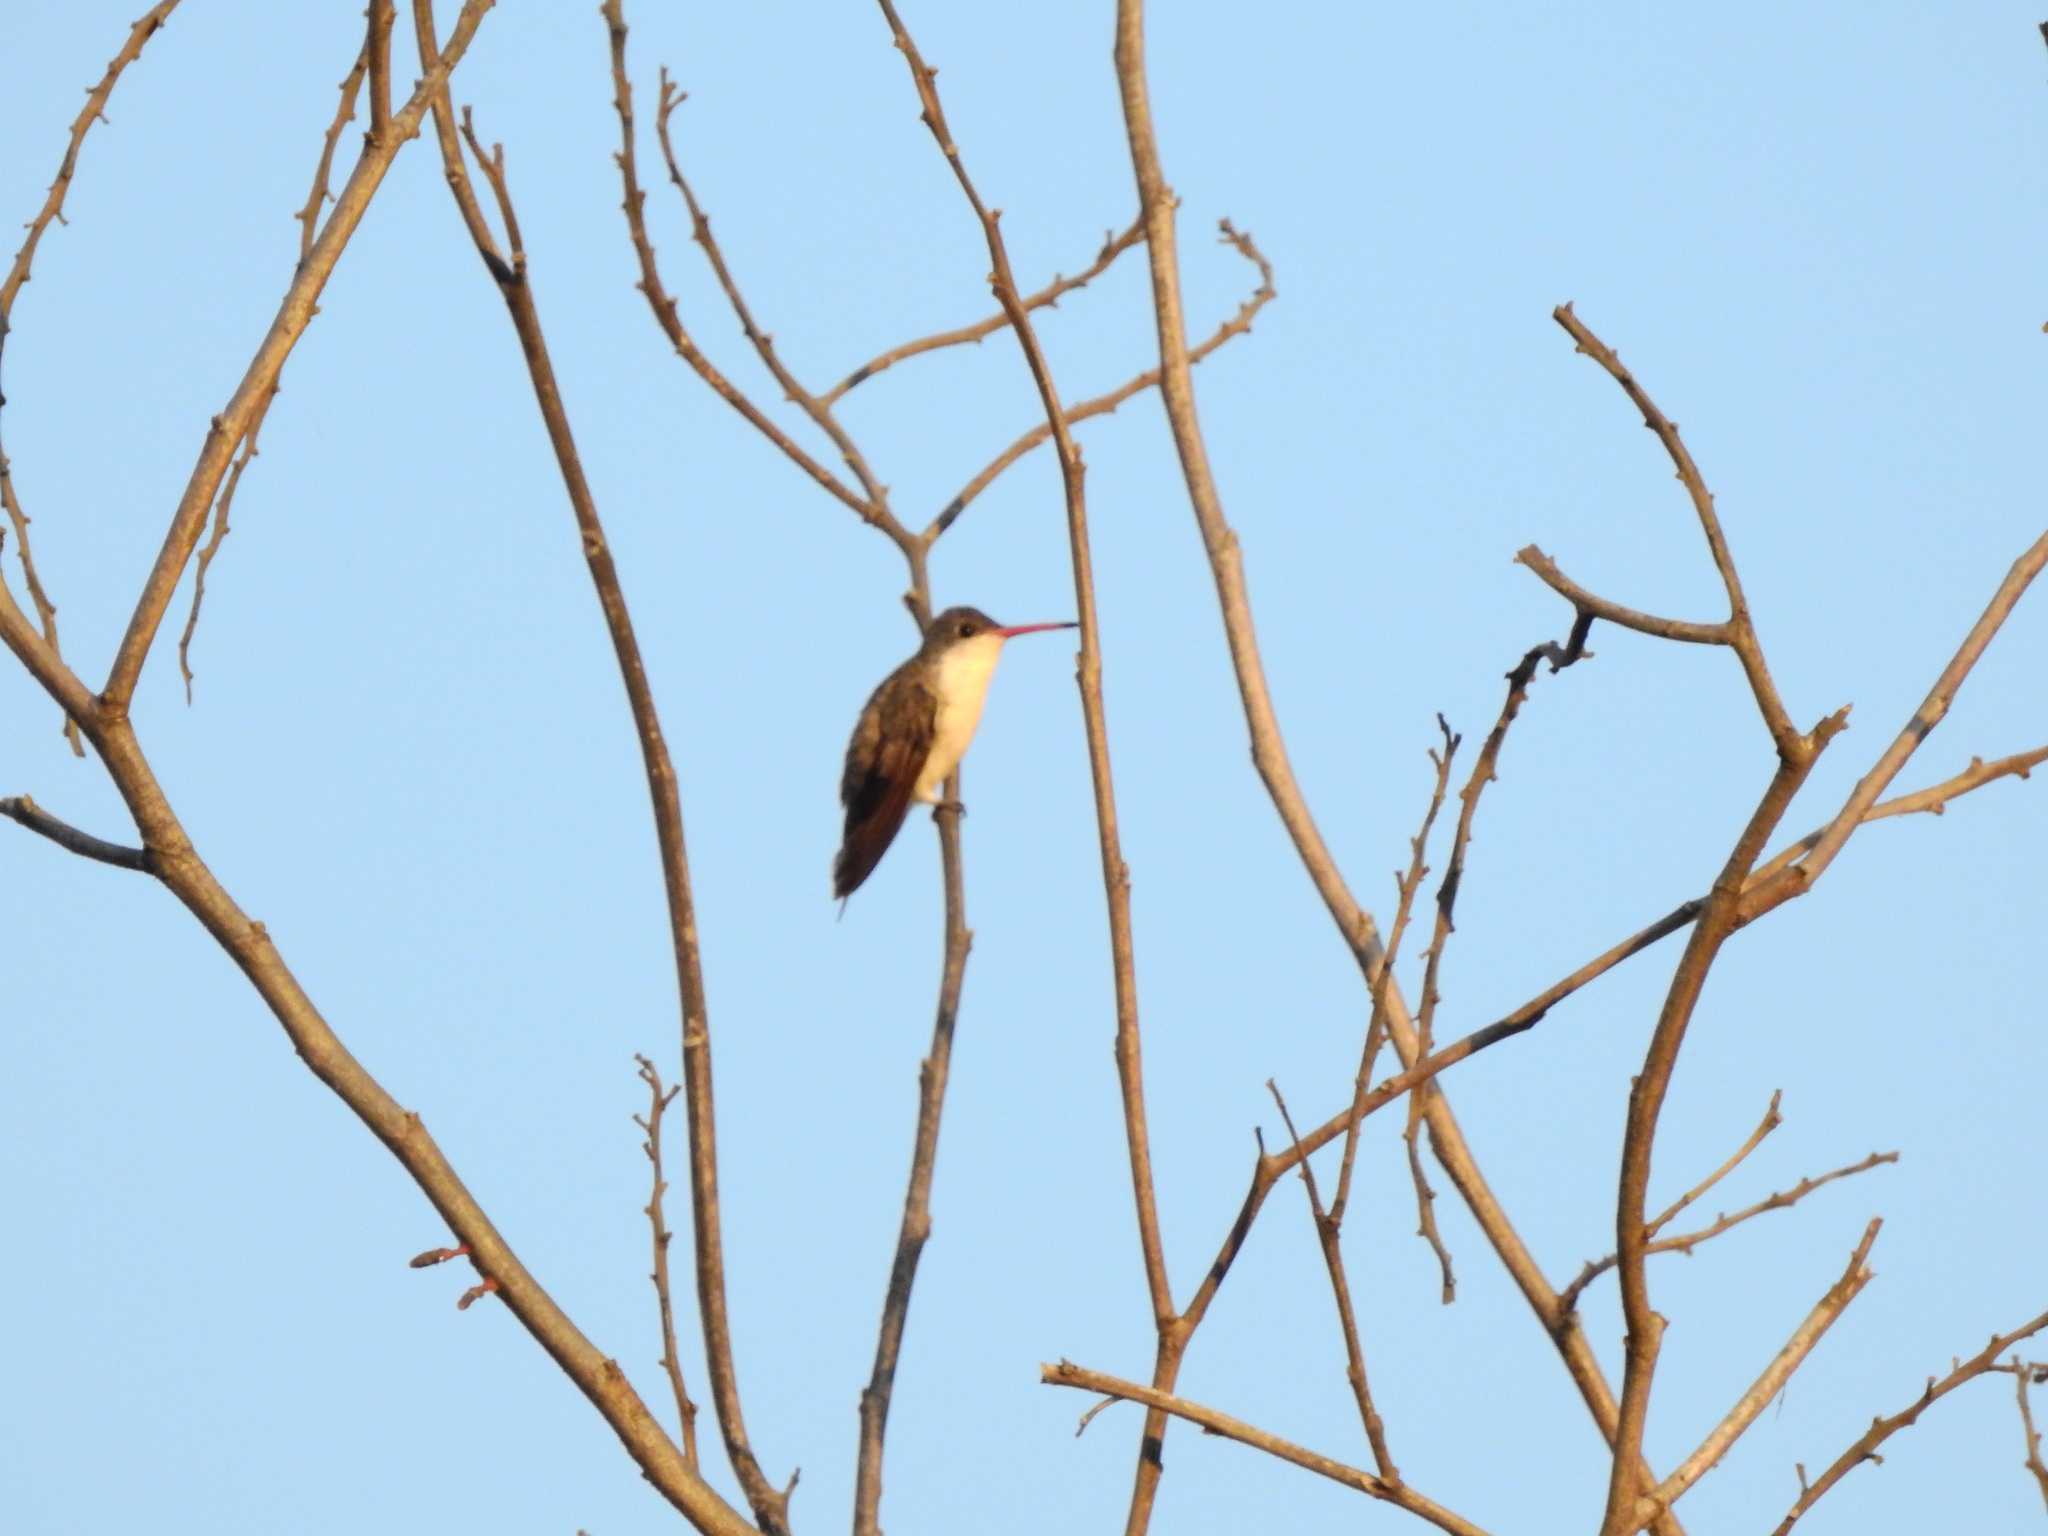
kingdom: Animalia
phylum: Chordata
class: Aves
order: Apodiformes
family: Trochilidae
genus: Leucolia
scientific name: Leucolia violiceps
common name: Violet-crowned hummingbird
